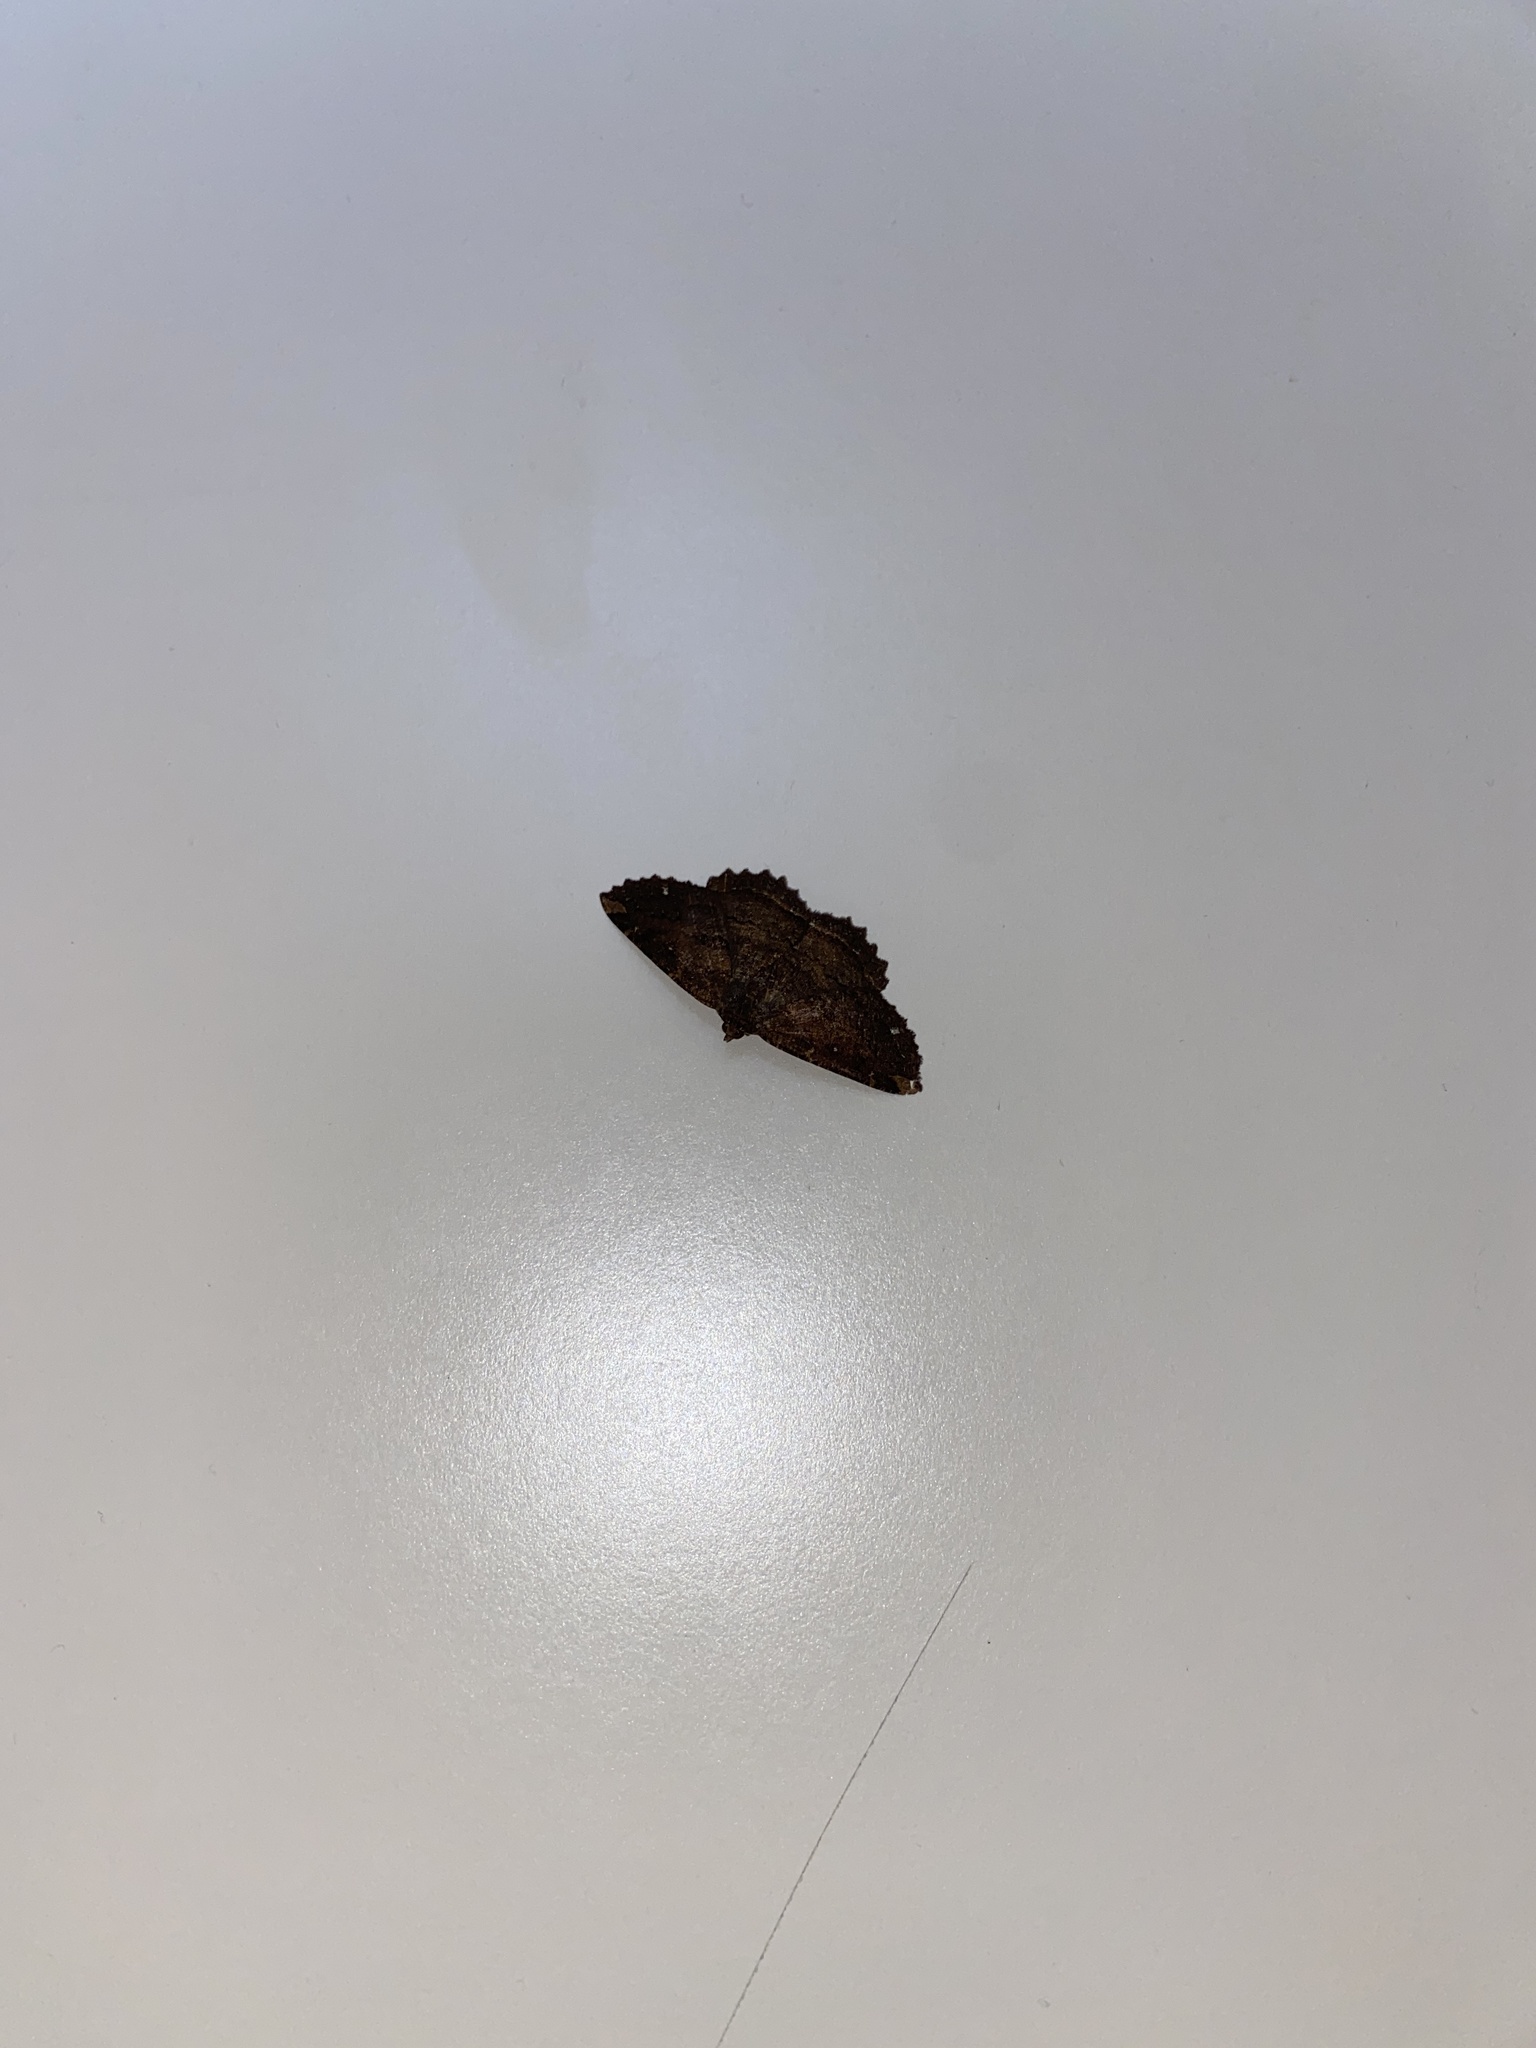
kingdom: Animalia
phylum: Arthropoda
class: Insecta
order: Lepidoptera
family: Geometridae
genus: Gellonia
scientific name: Gellonia dejectaria
